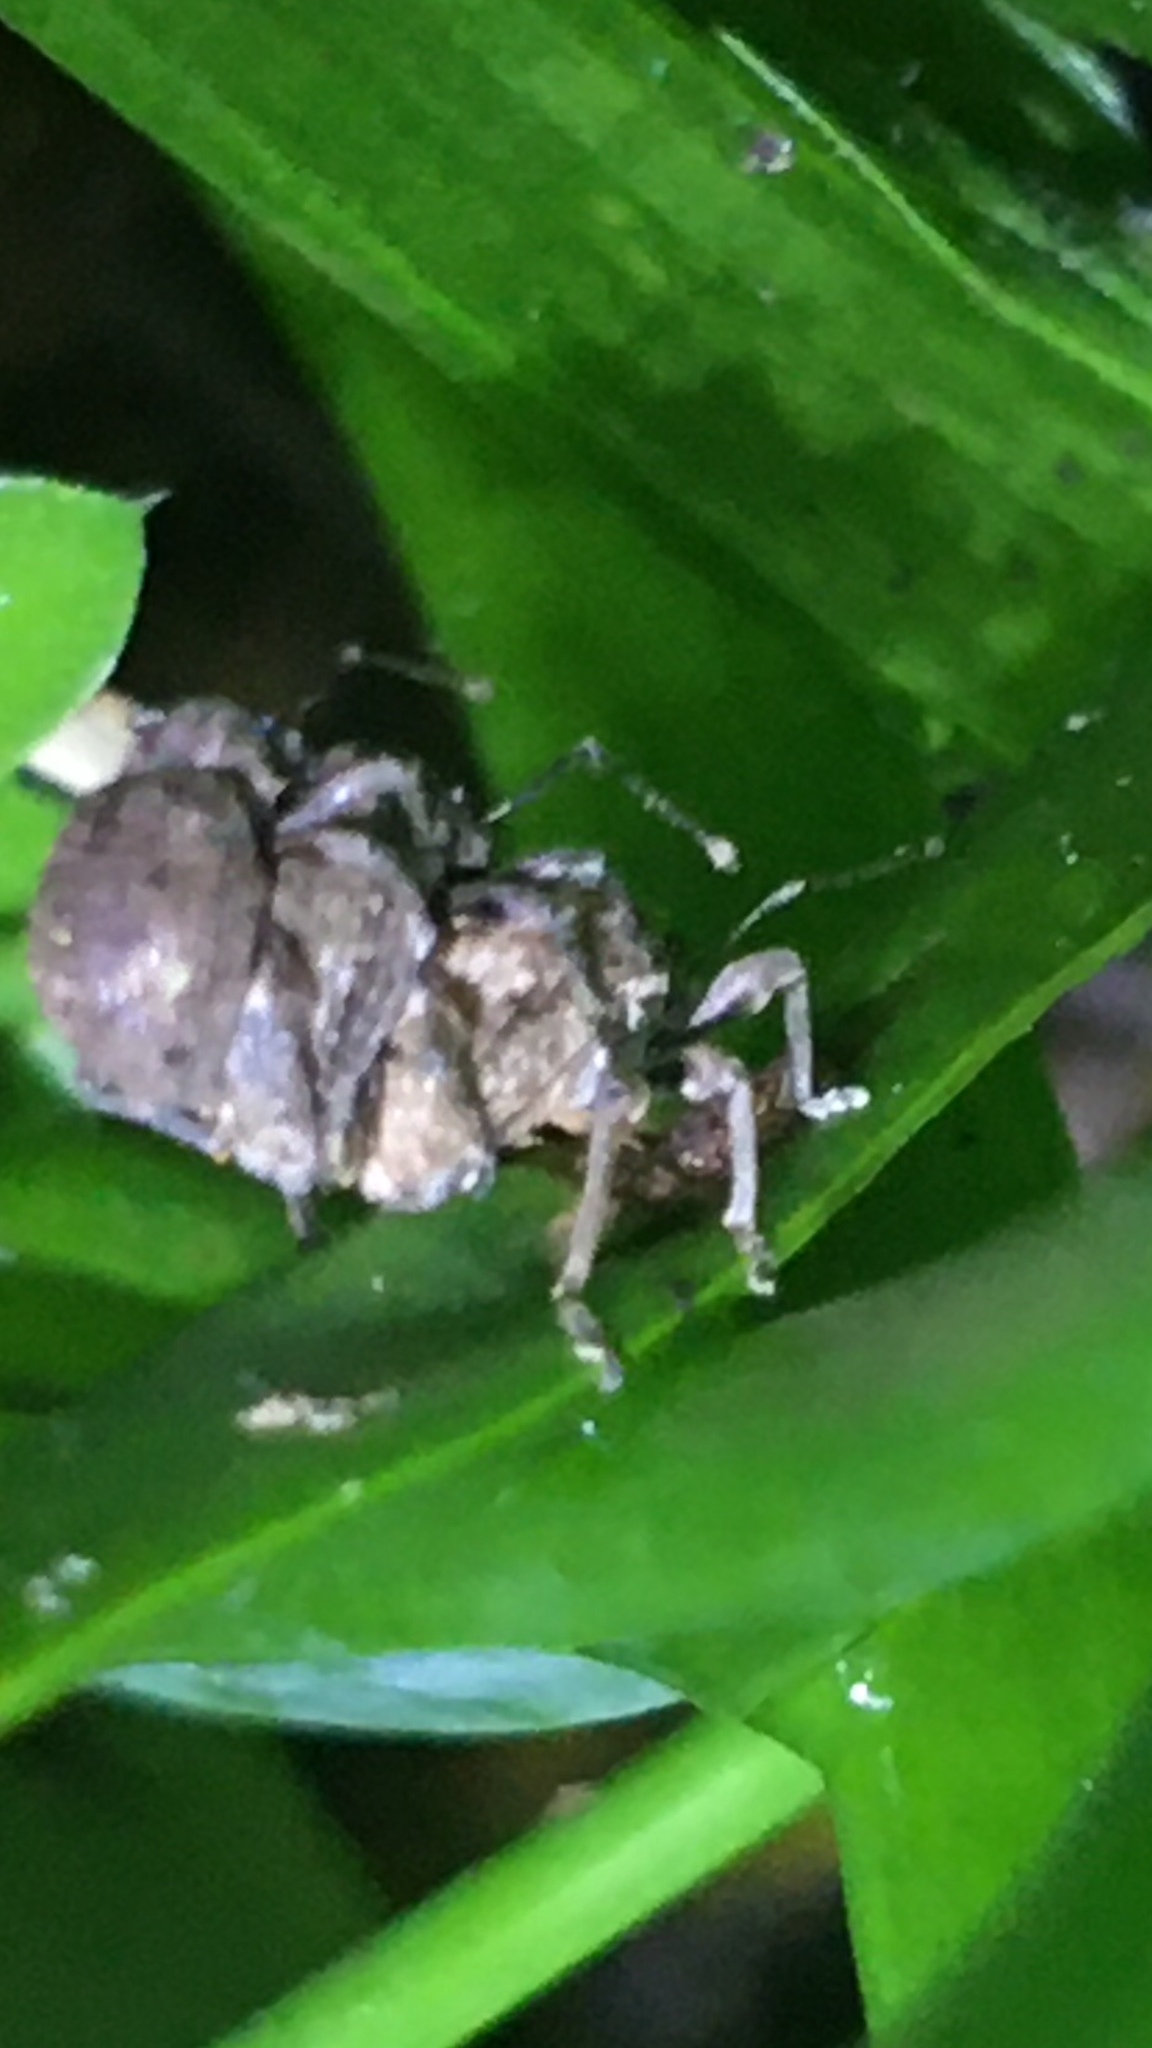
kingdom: Animalia
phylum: Arthropoda
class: Insecta
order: Coleoptera
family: Curculionidae
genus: Ellimenistes
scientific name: Ellimenistes laesicollis
